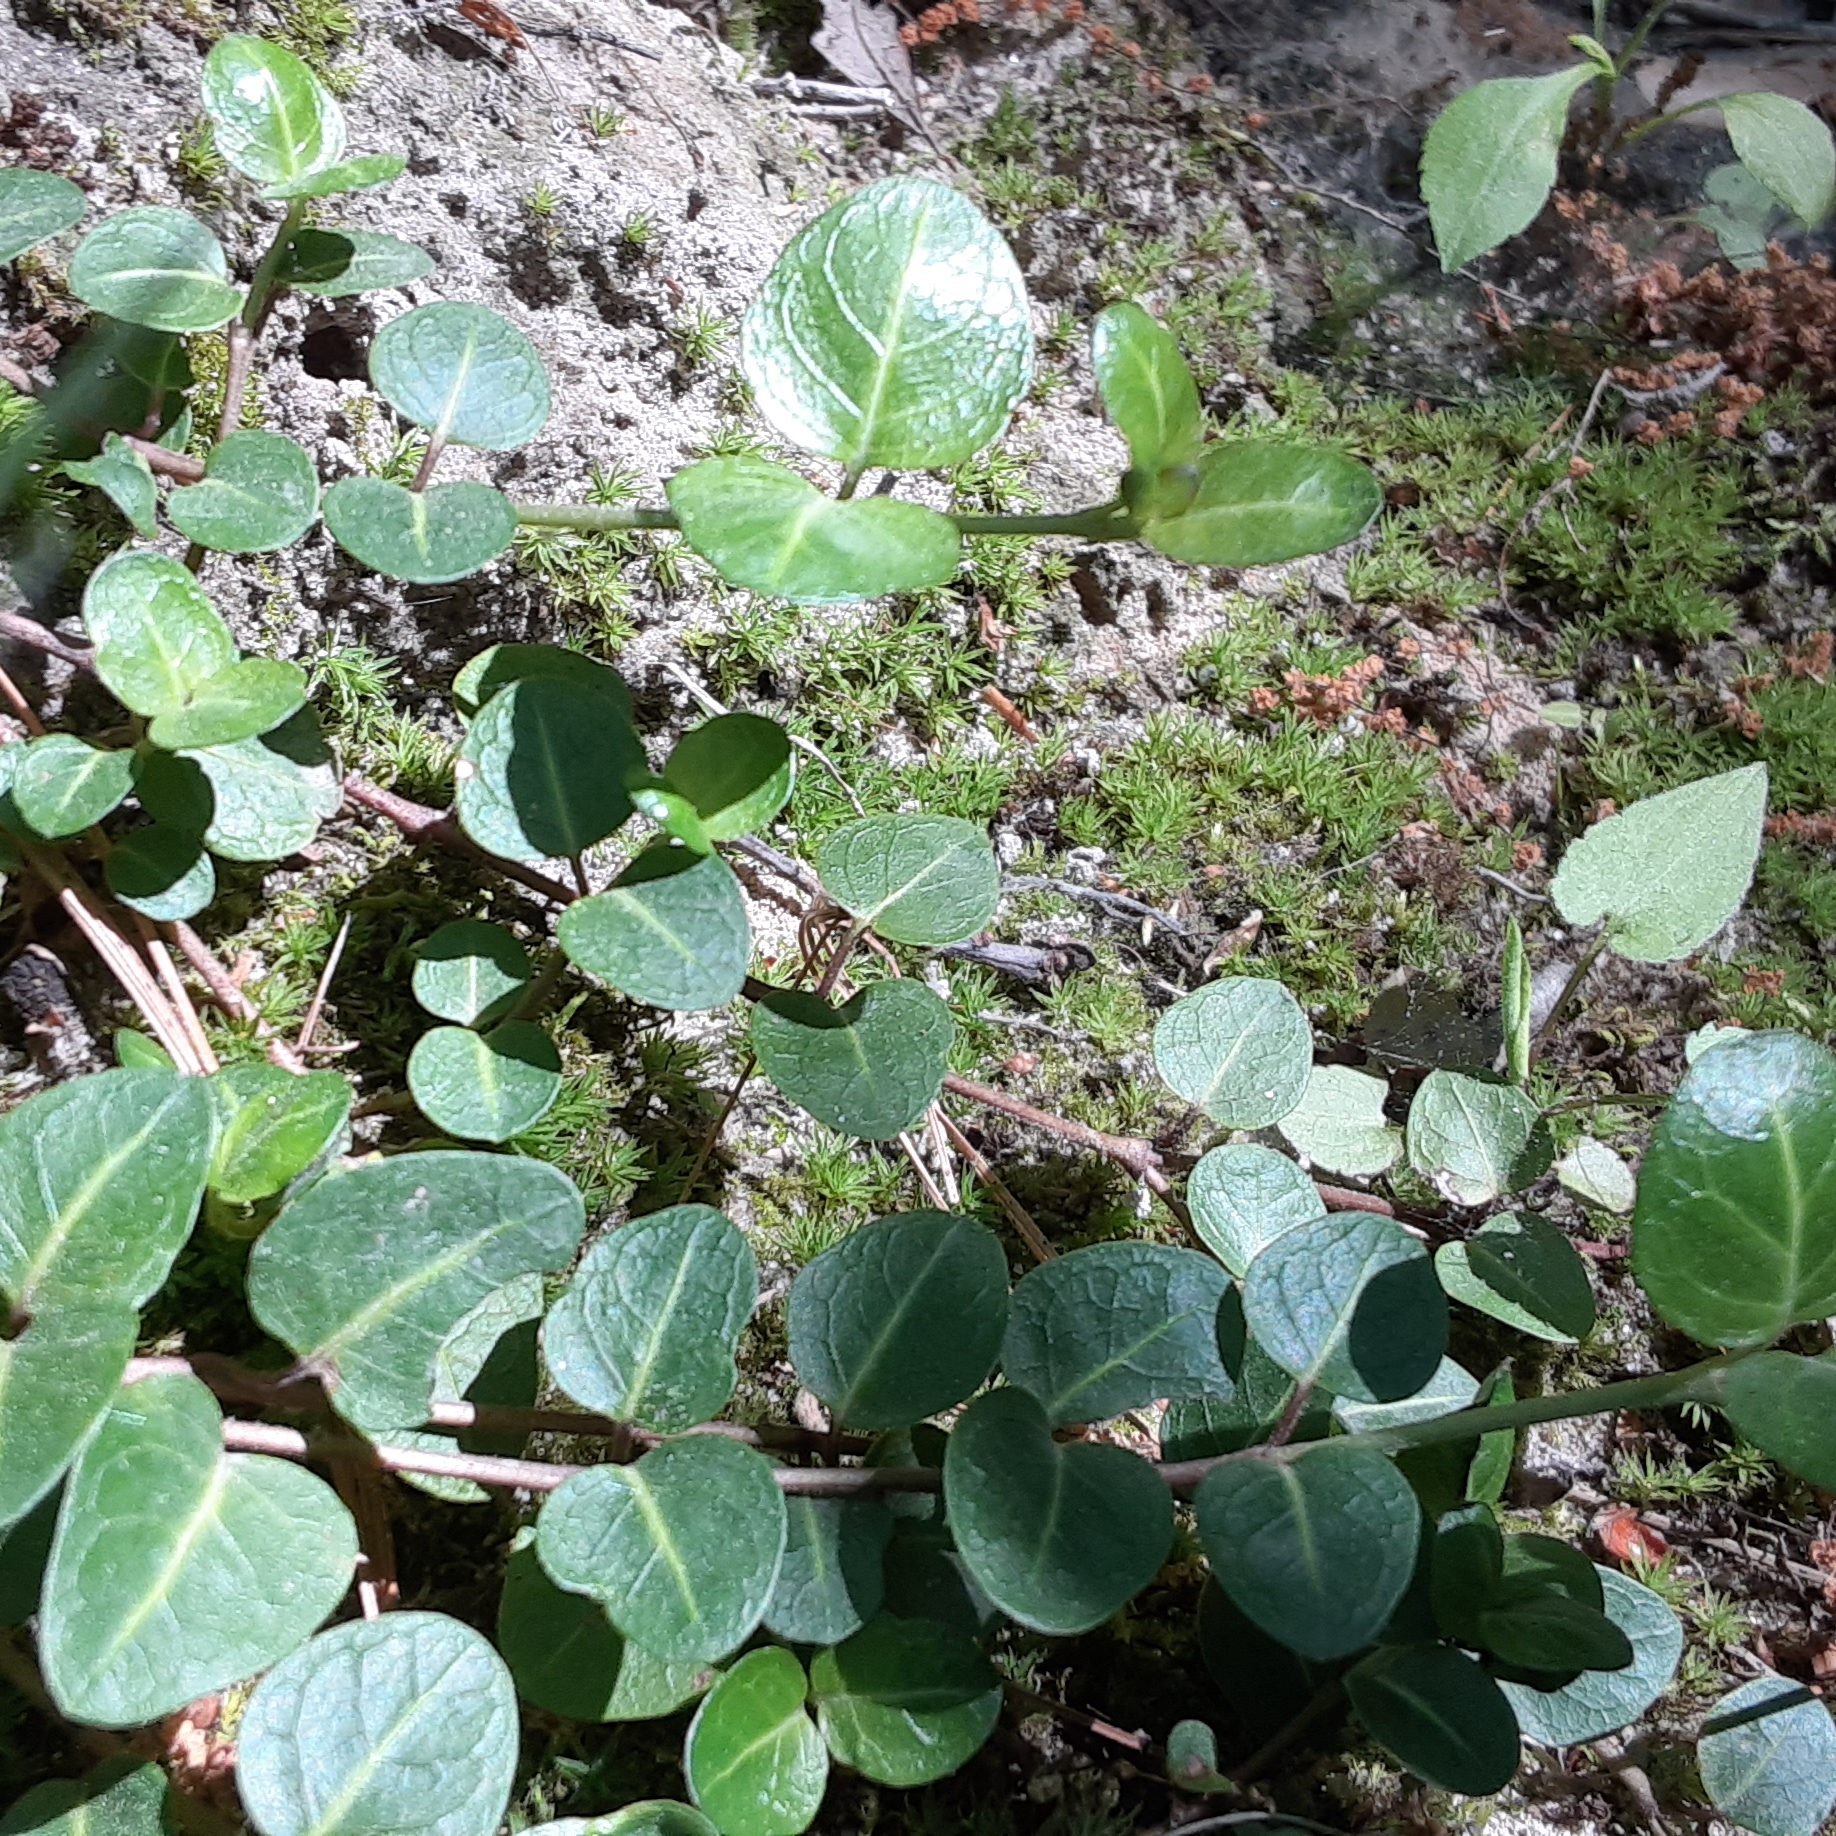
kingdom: Plantae
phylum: Tracheophyta
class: Magnoliopsida
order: Gentianales
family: Rubiaceae
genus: Mitchella
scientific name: Mitchella repens
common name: Partridge-berry
